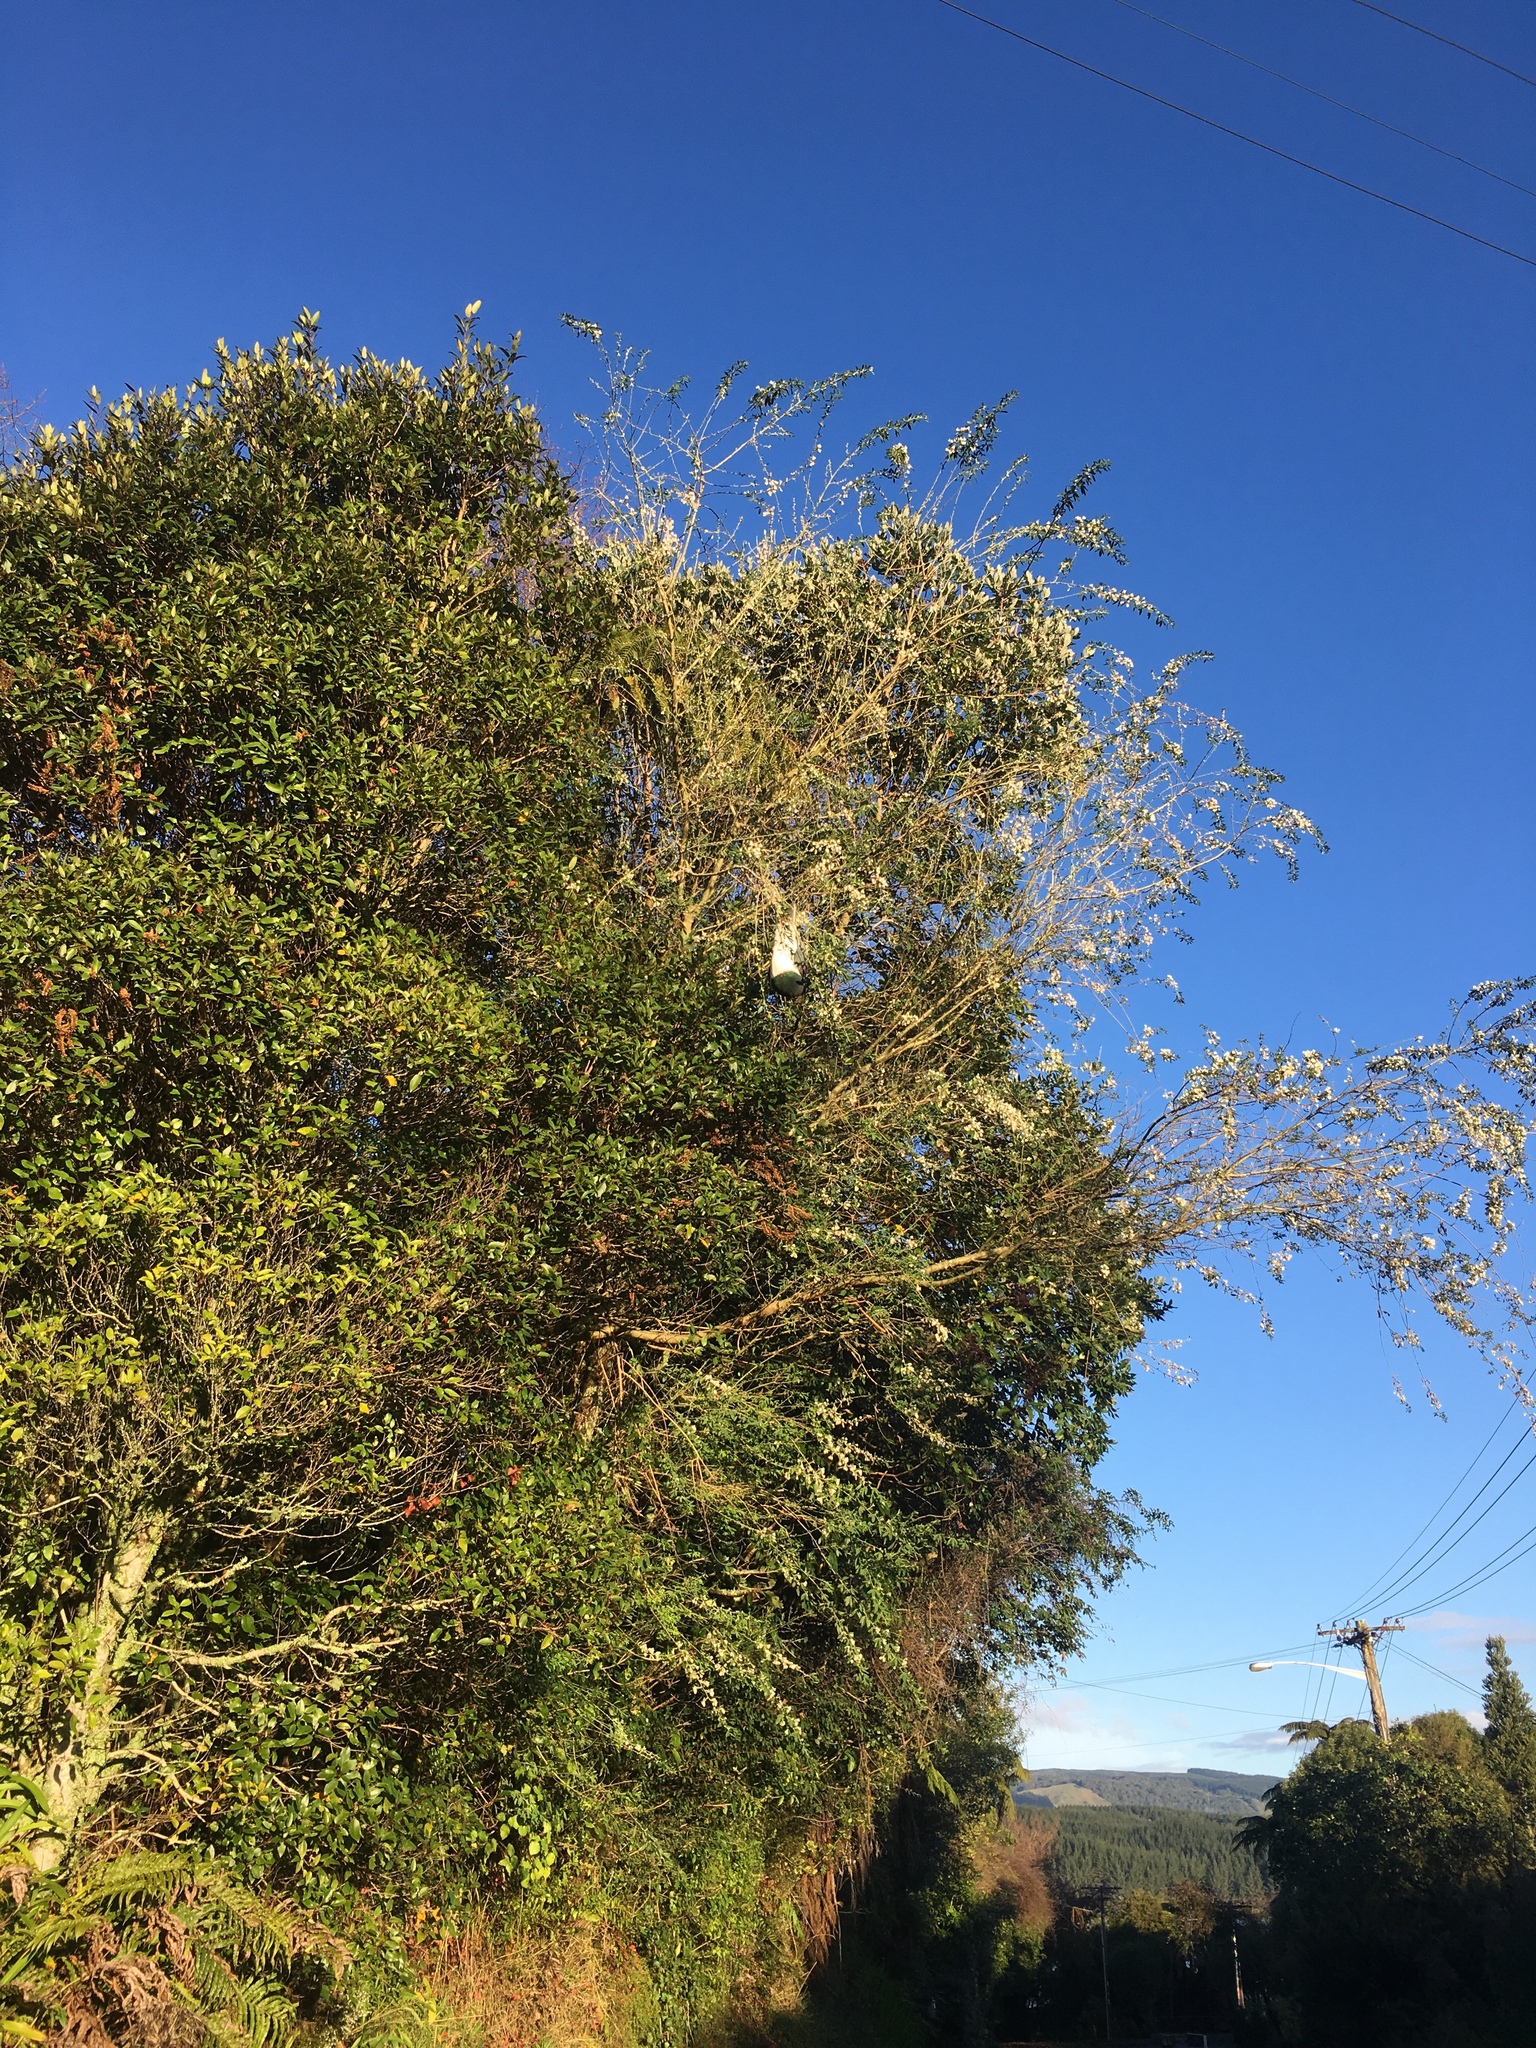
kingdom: Animalia
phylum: Chordata
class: Aves
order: Columbiformes
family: Columbidae
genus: Hemiphaga
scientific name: Hemiphaga novaeseelandiae
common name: New zealand pigeon
